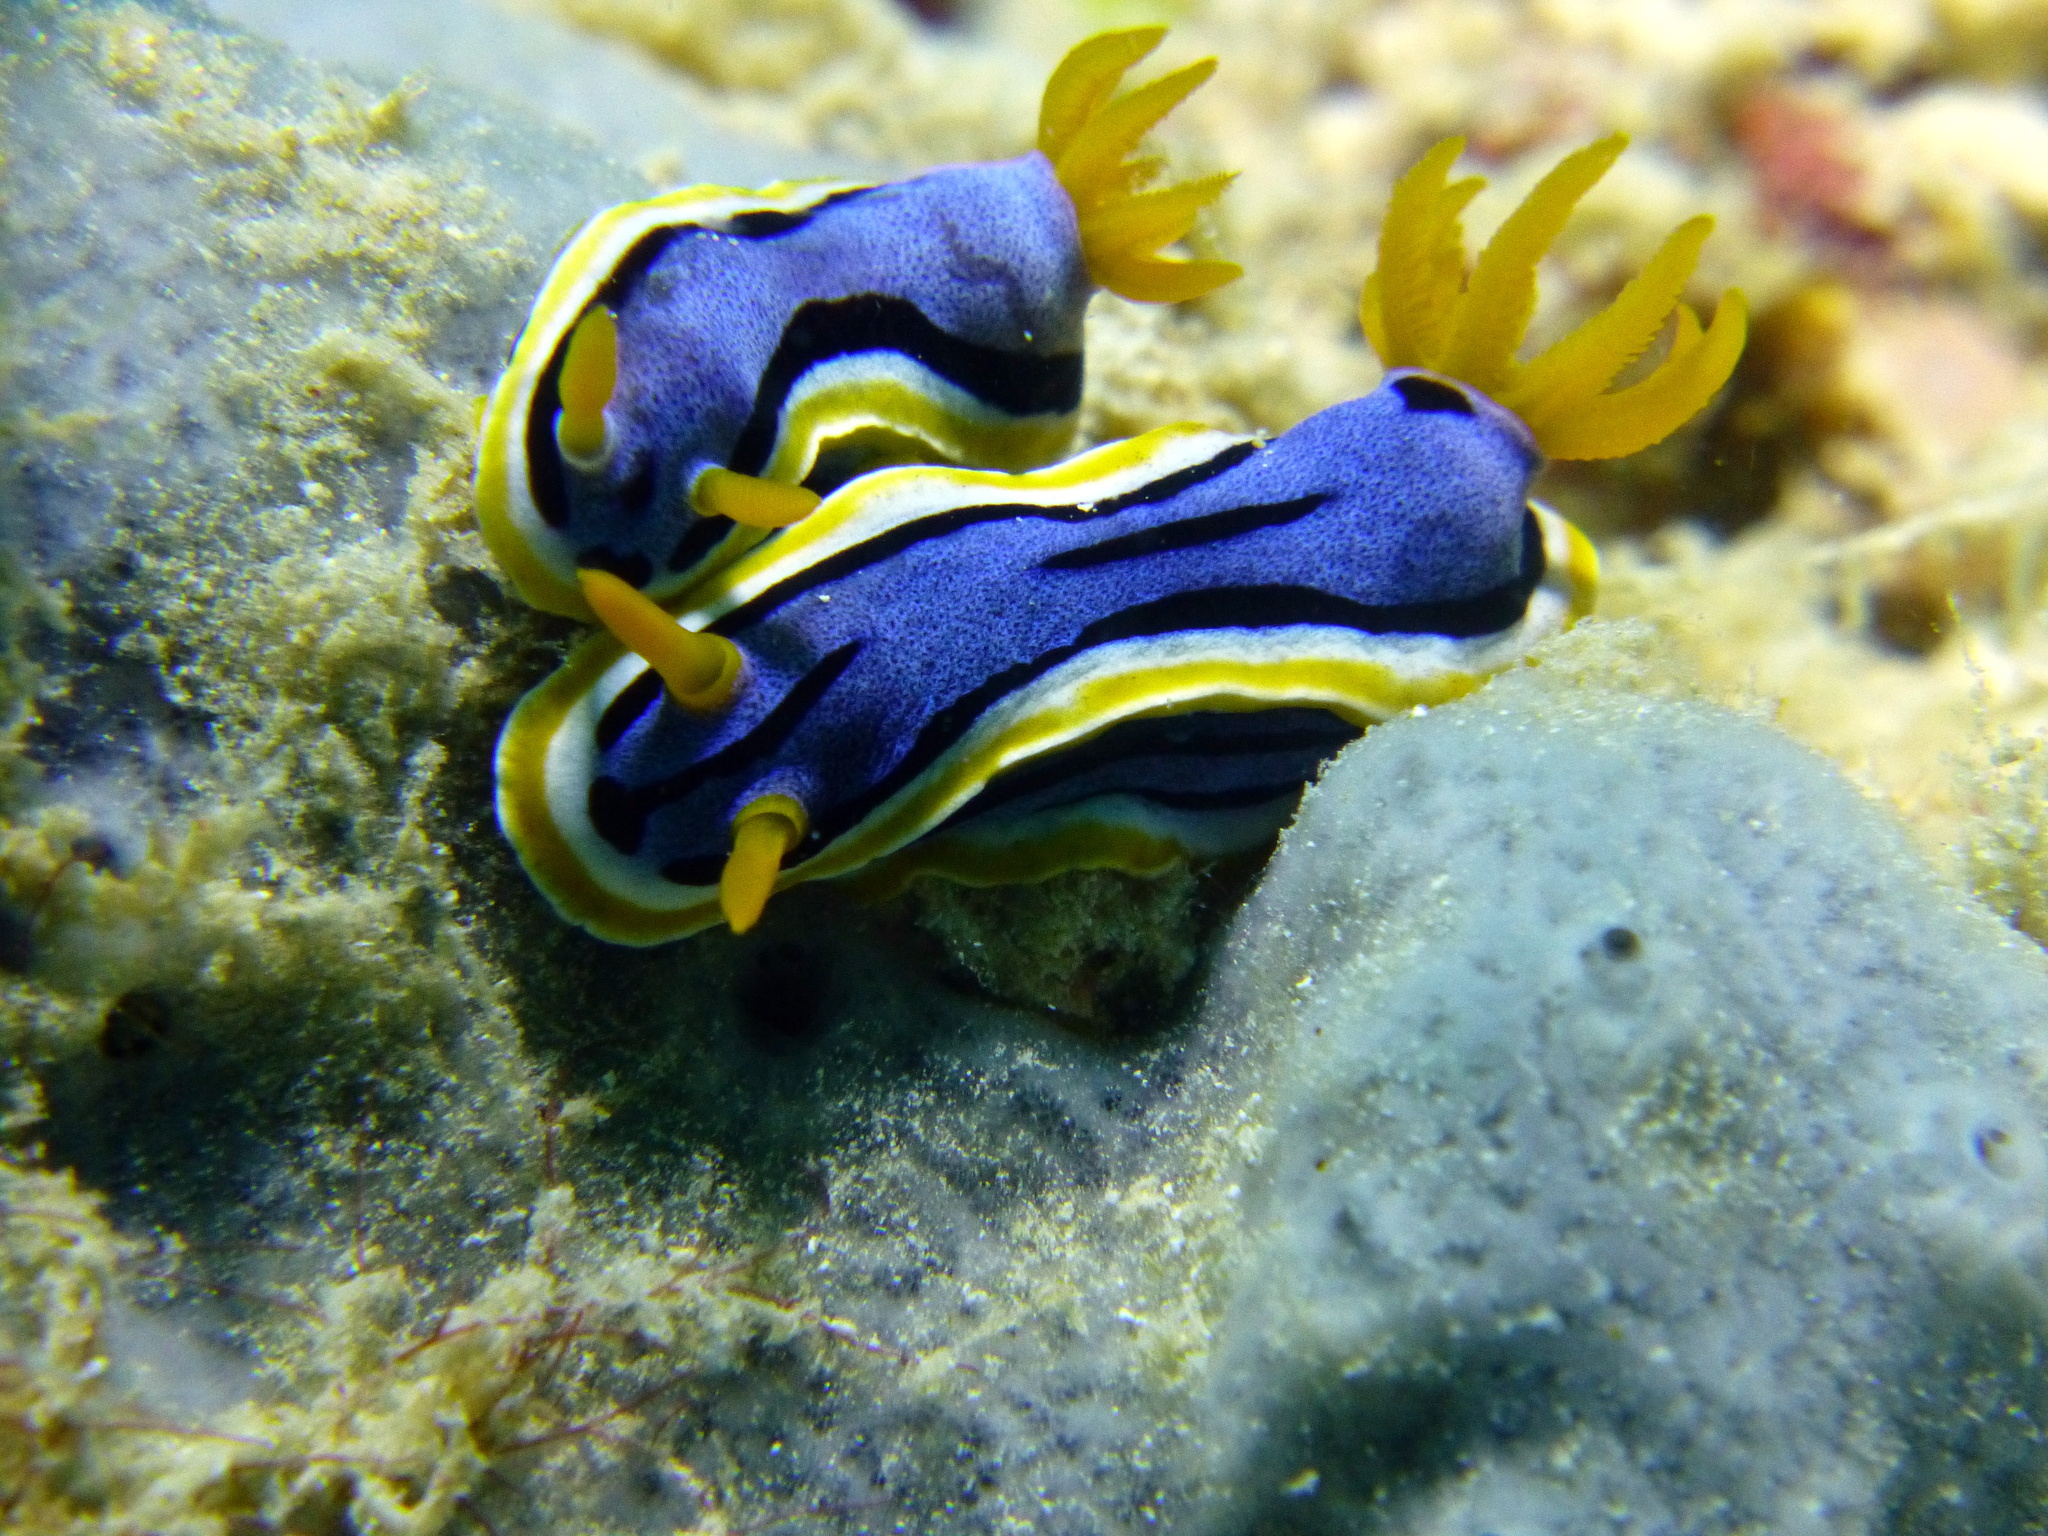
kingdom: Animalia
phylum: Mollusca
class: Gastropoda
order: Nudibranchia
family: Chromodorididae
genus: Chromodoris
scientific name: Chromodoris annae
